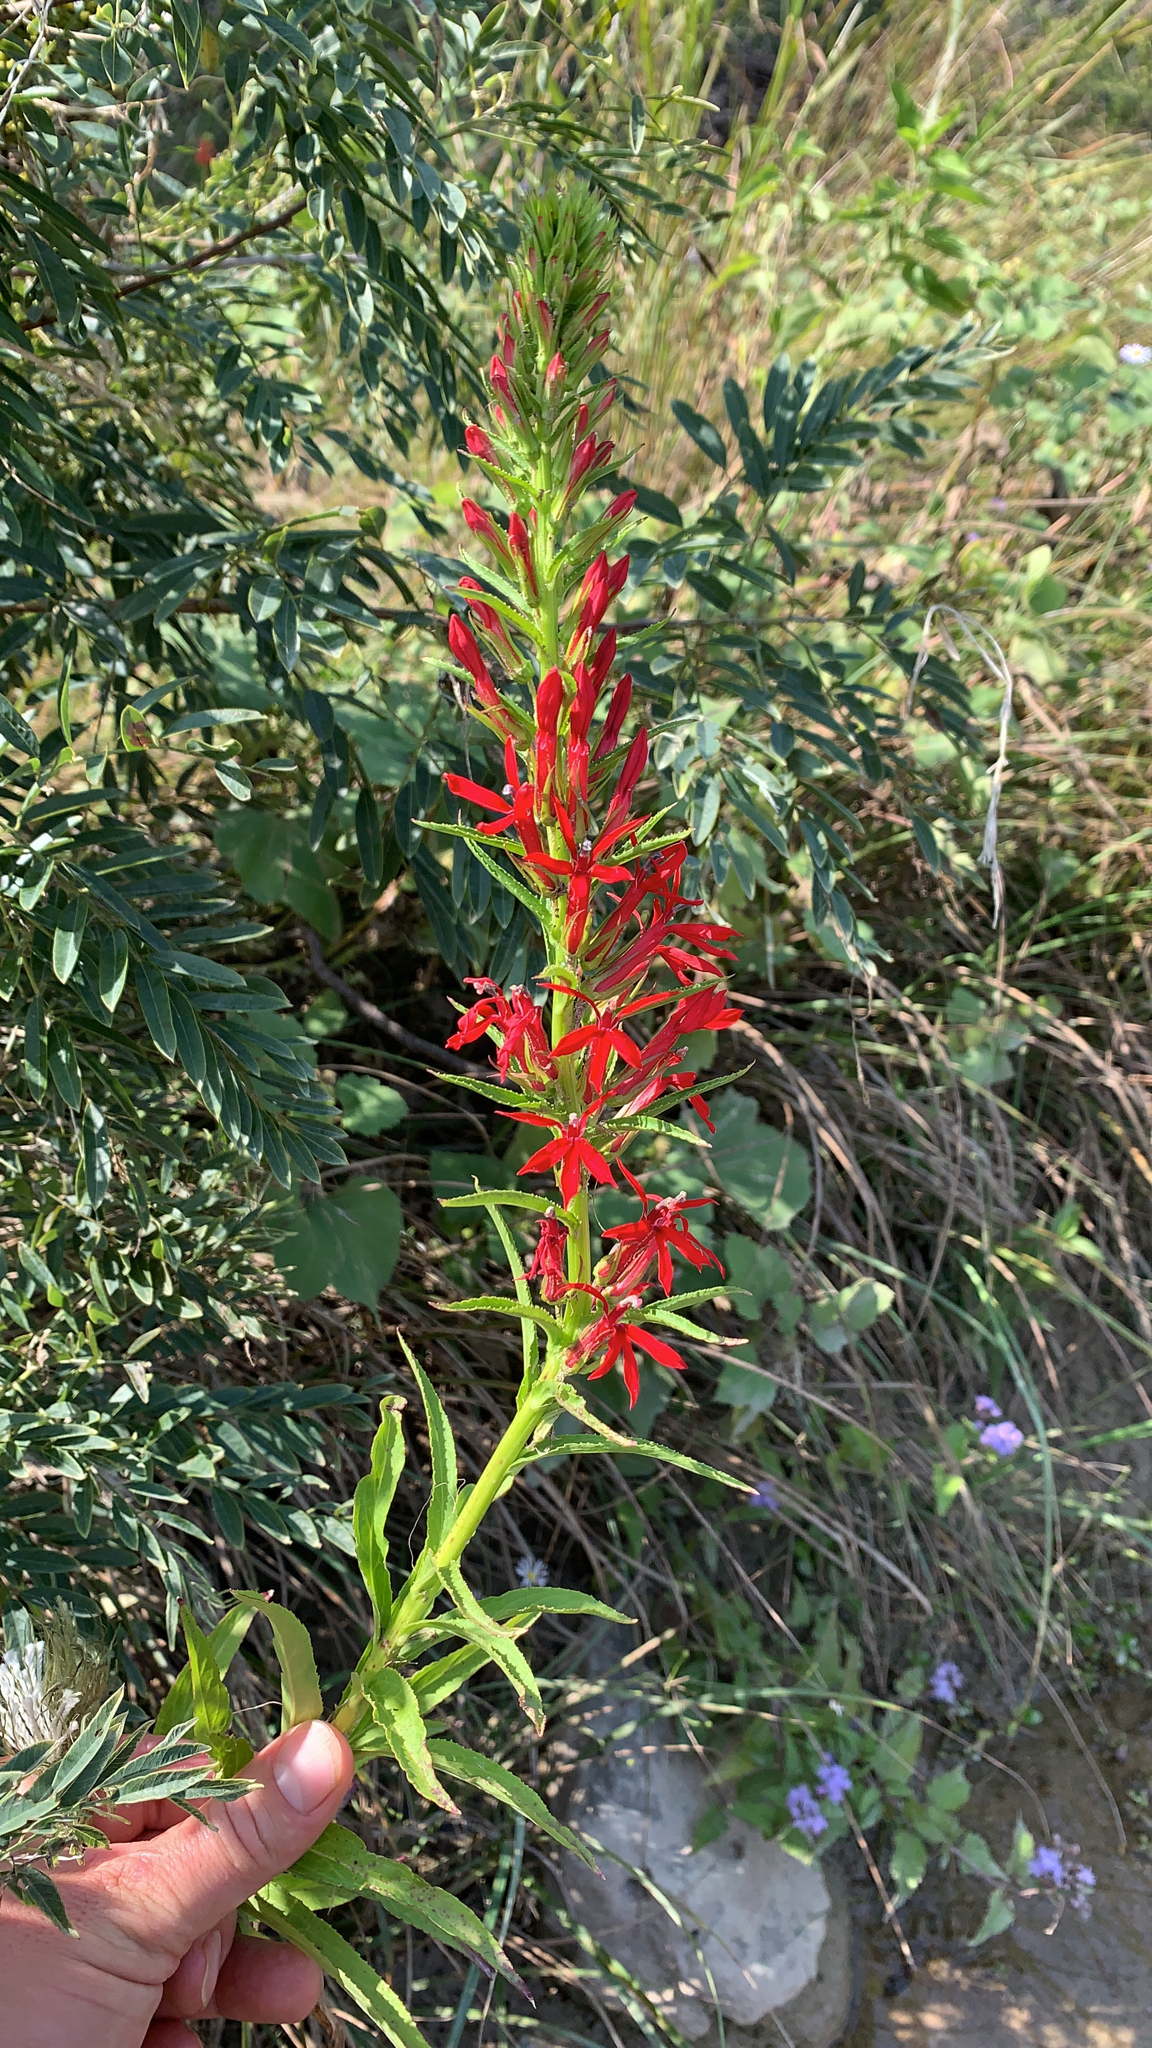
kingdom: Plantae
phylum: Tracheophyta
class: Magnoliopsida
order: Asterales
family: Campanulaceae
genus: Lobelia
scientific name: Lobelia cardinalis
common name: Cardinal flower
